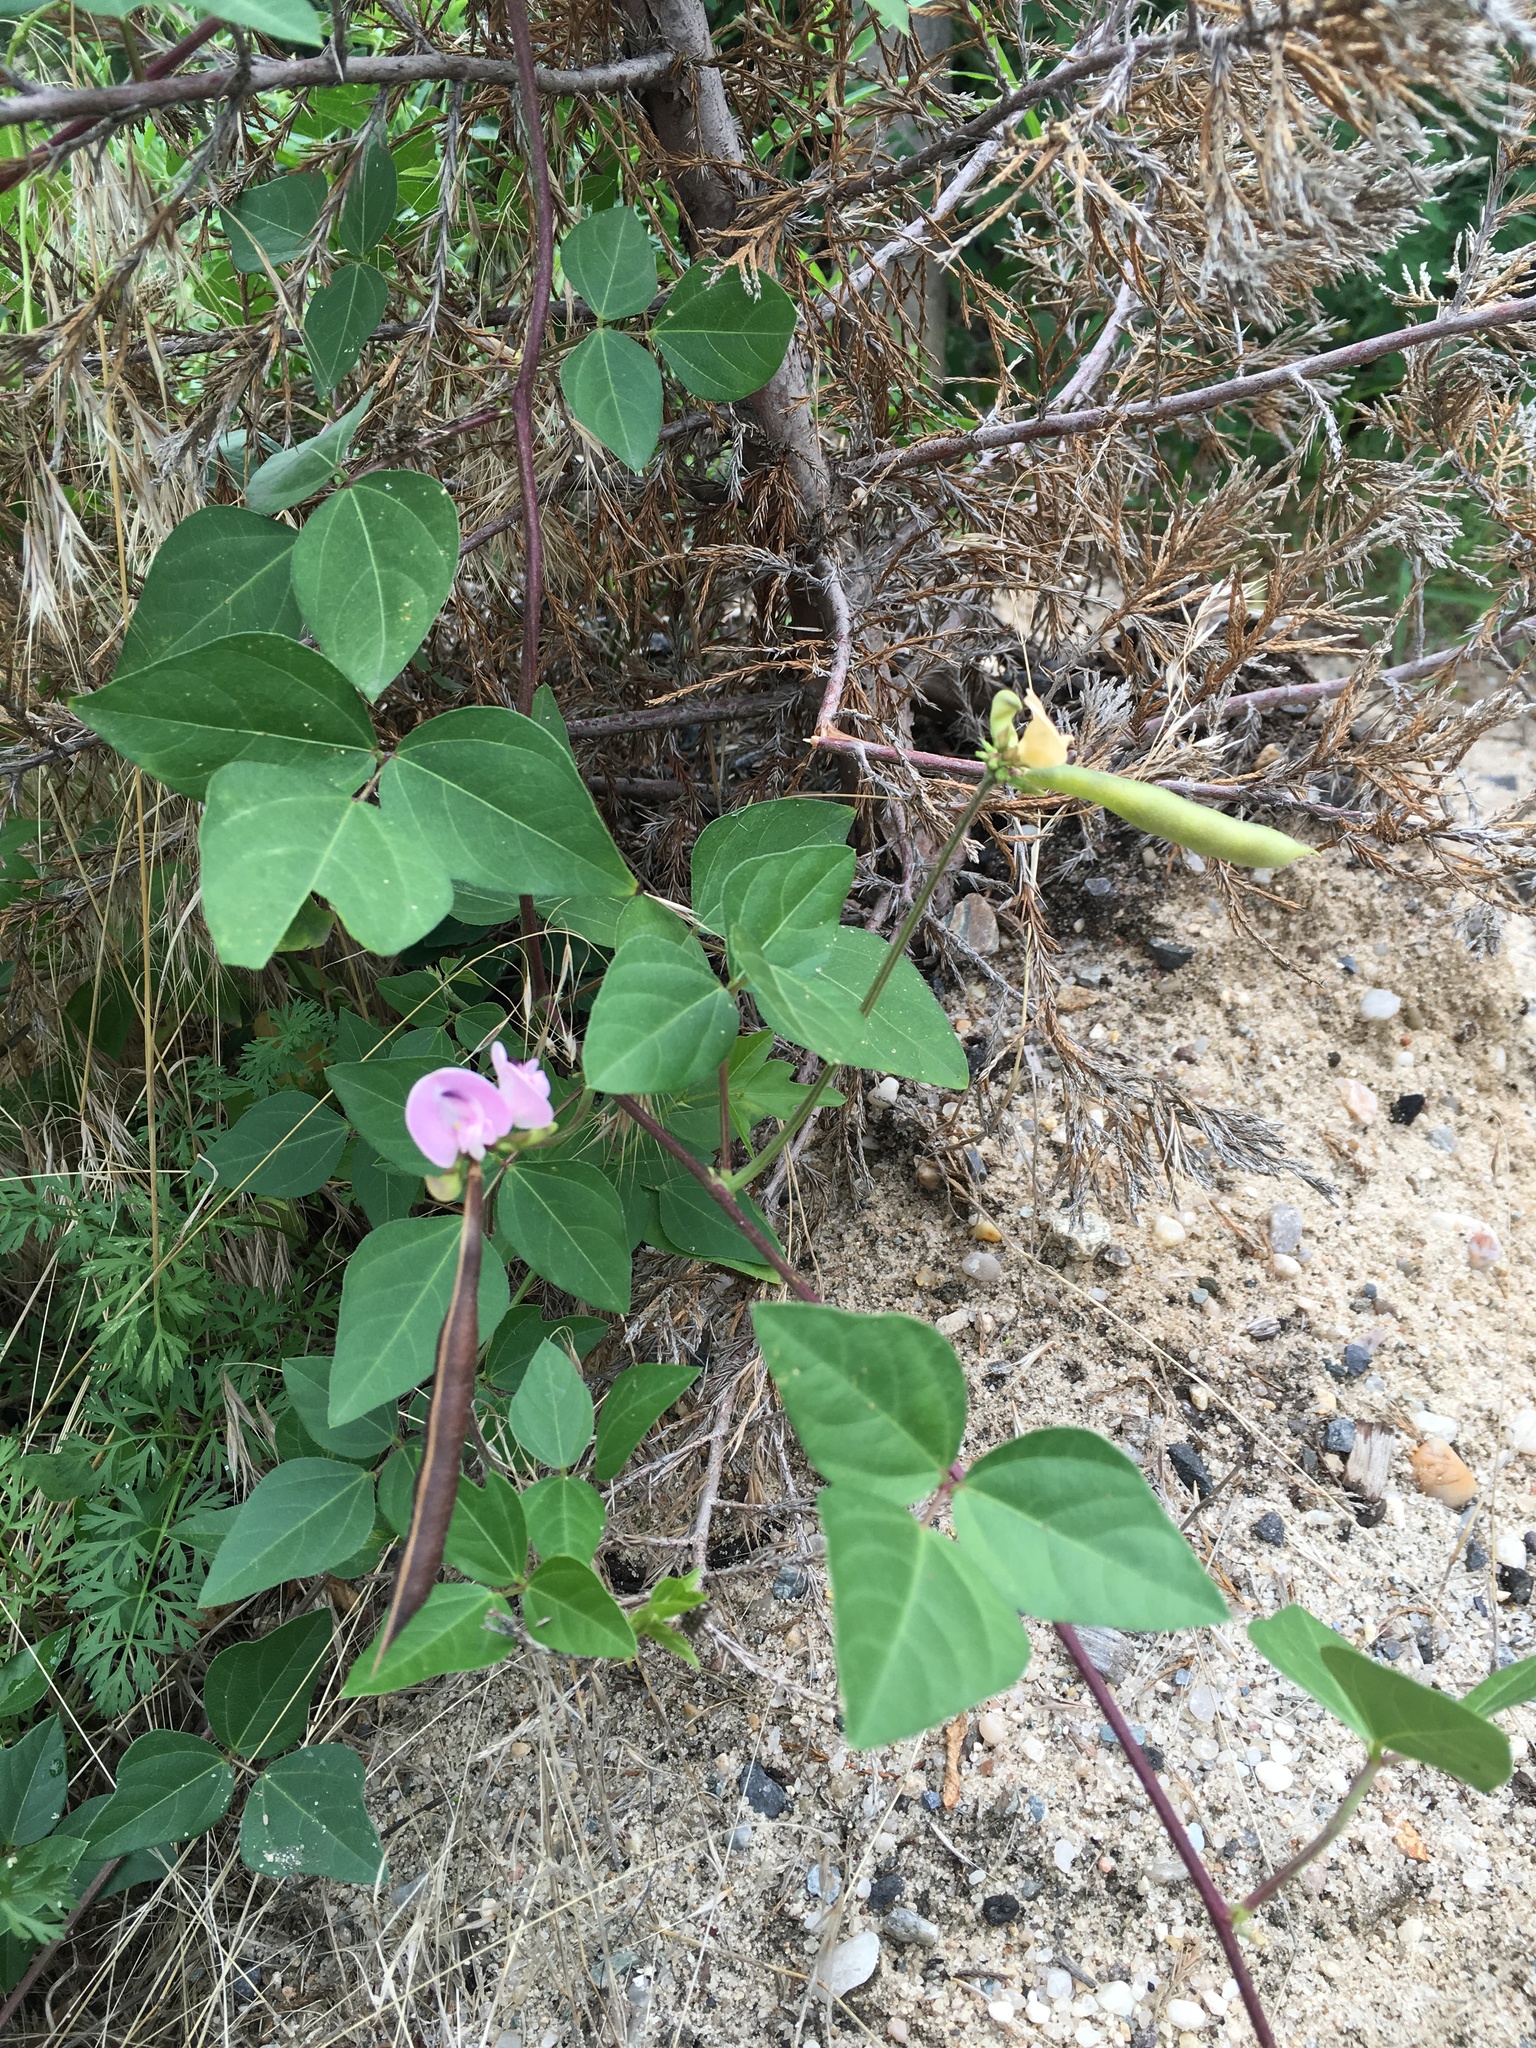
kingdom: Plantae
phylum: Tracheophyta
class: Magnoliopsida
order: Fabales
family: Fabaceae
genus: Strophostyles
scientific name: Strophostyles helvola
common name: Trailing wild bean
